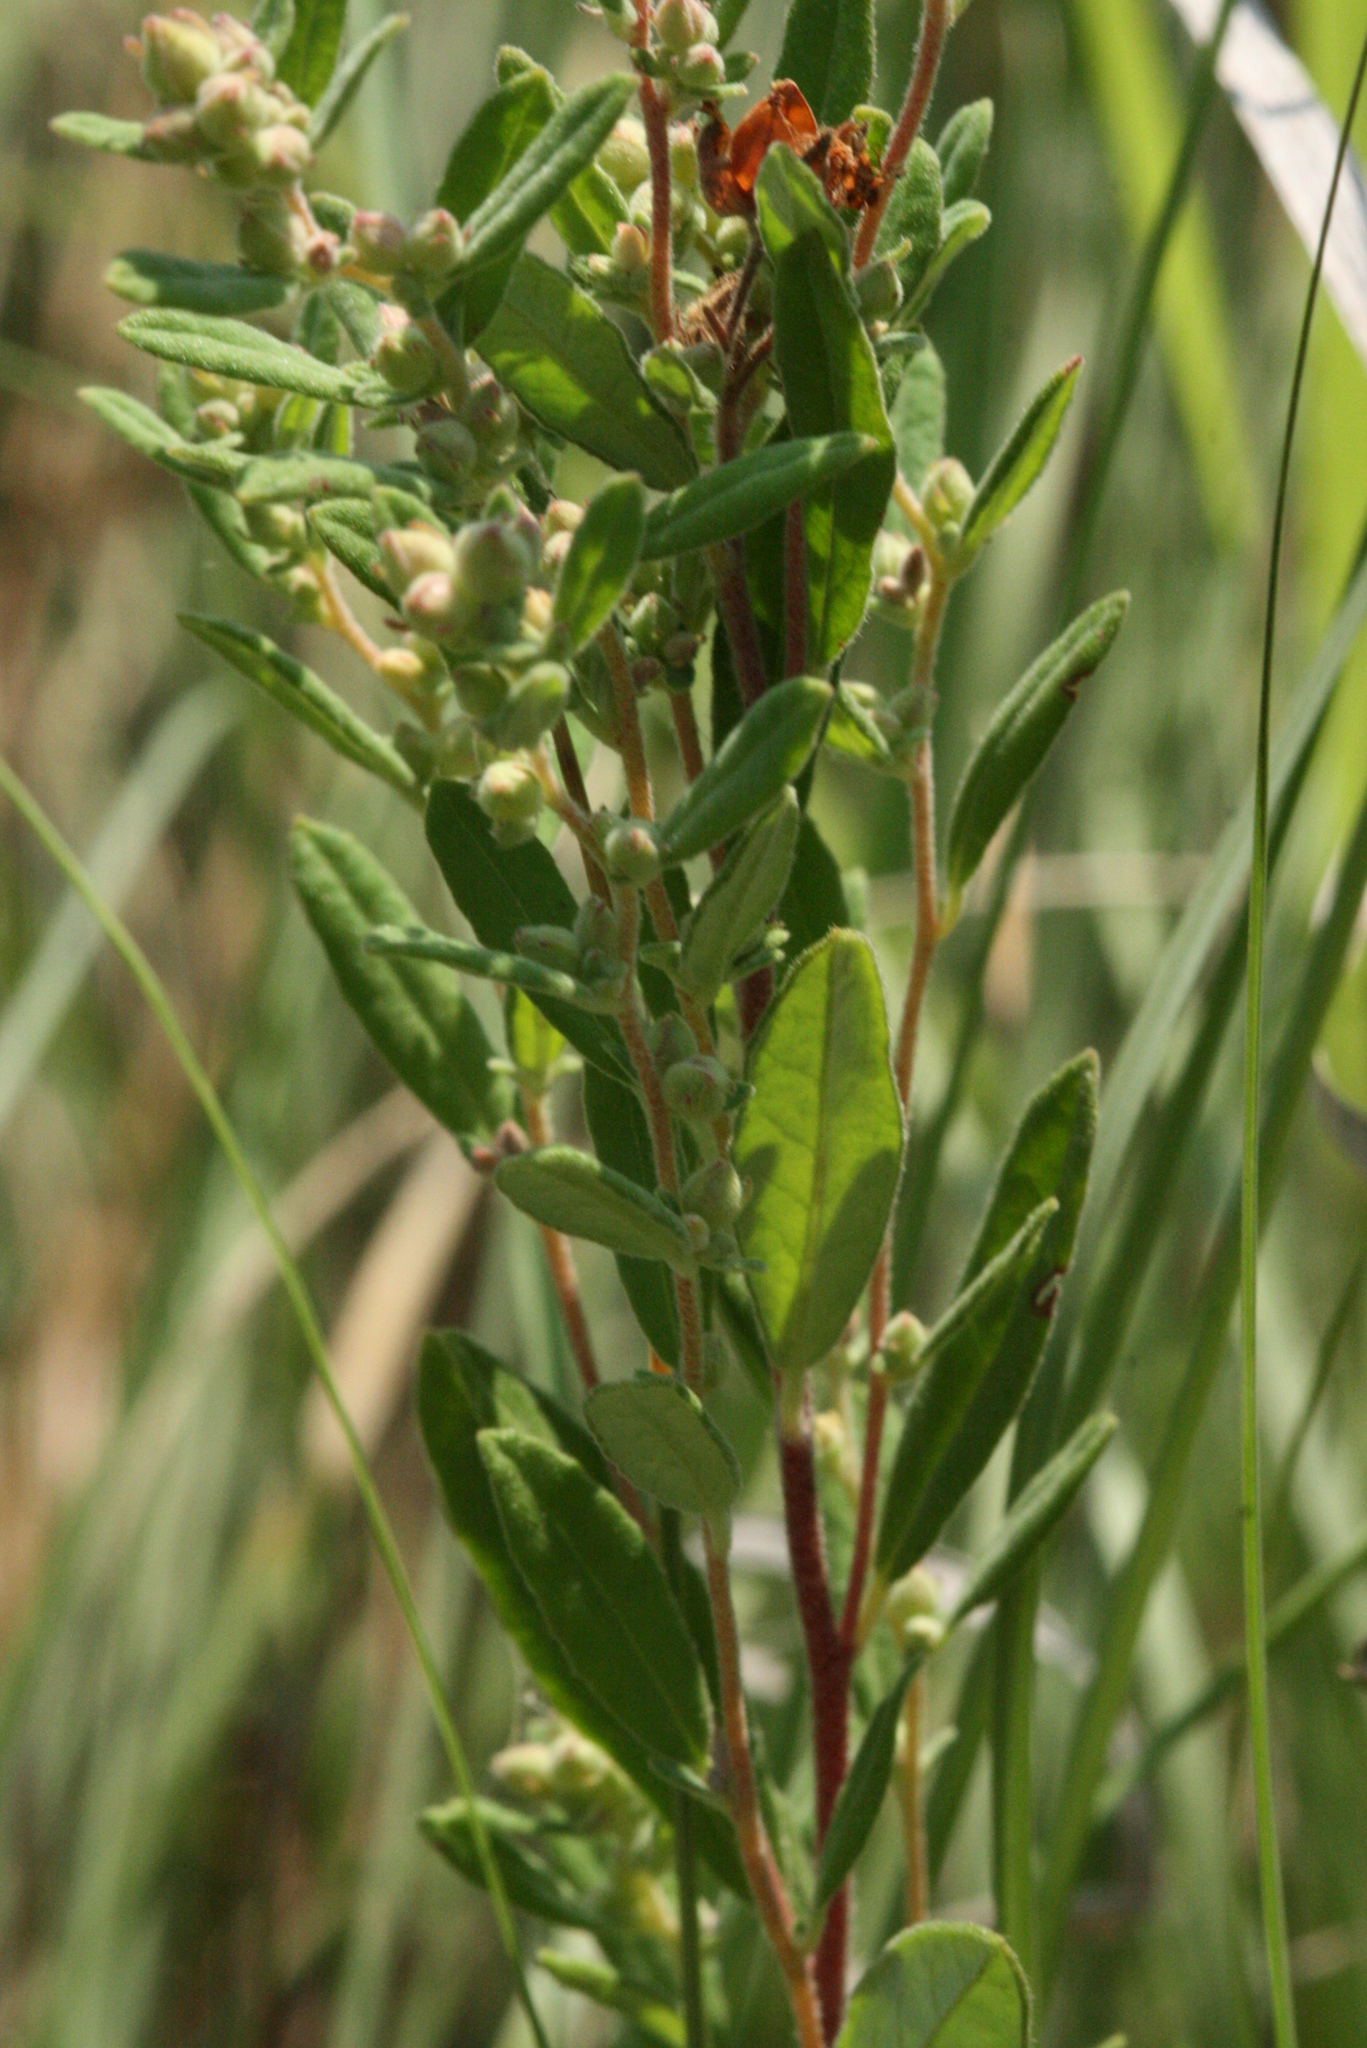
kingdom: Plantae
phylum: Tracheophyta
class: Magnoliopsida
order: Malvales
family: Cistaceae
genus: Crocanthemum
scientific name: Crocanthemum bicknellii
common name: Hoary frostweed
